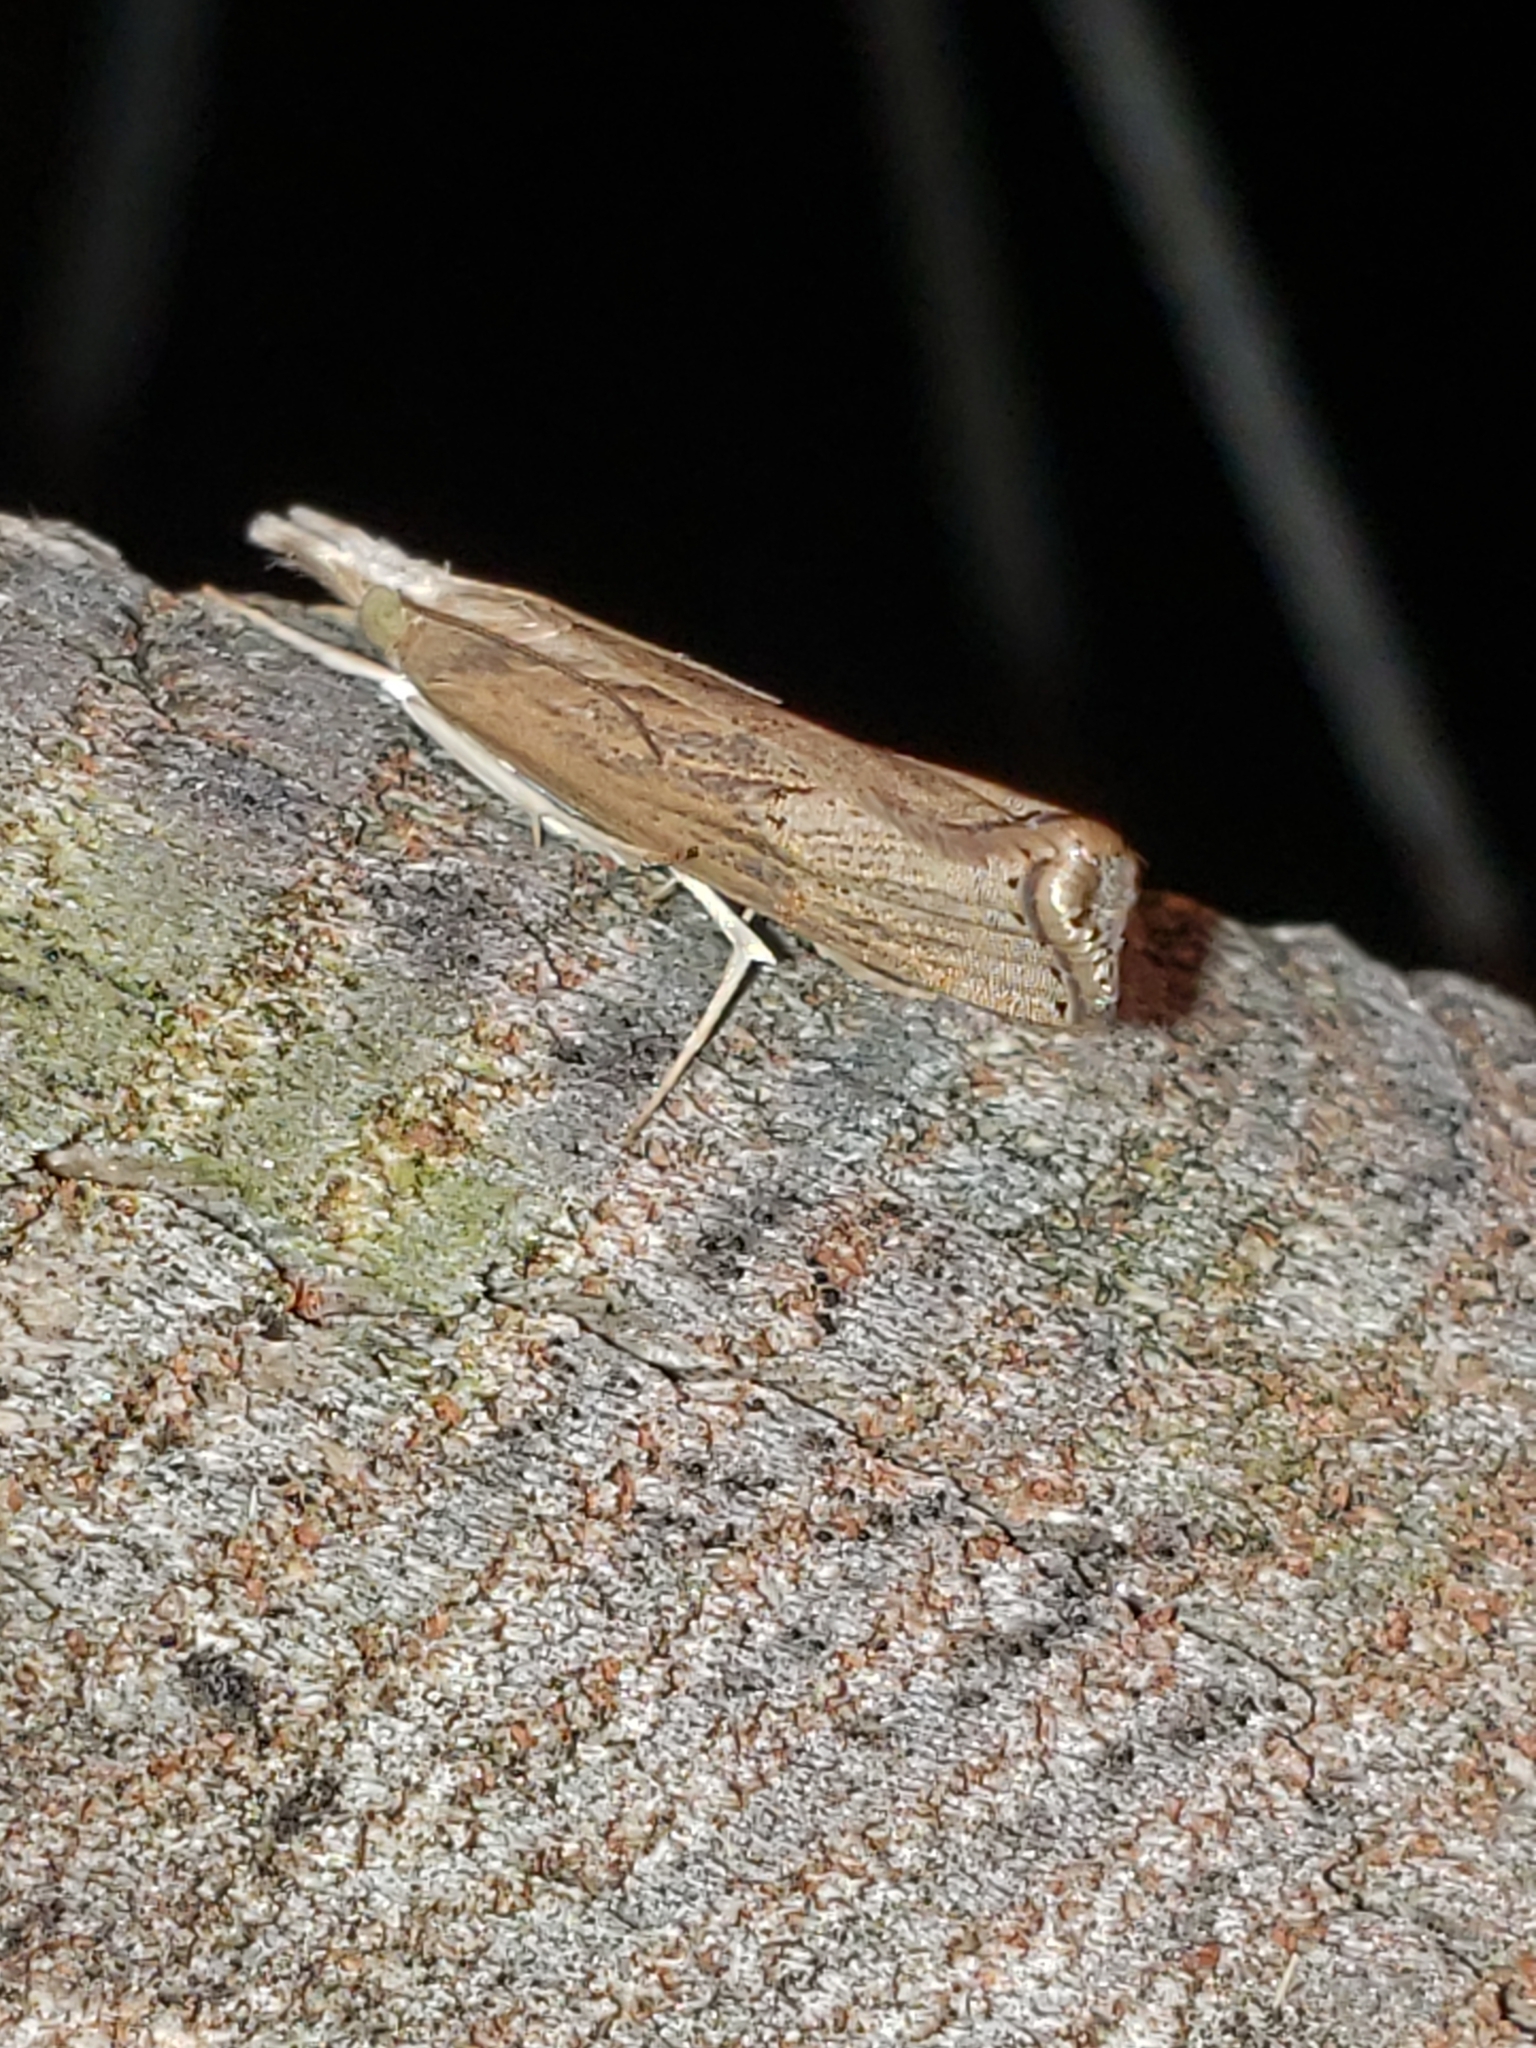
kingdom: Animalia
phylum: Arthropoda
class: Insecta
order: Lepidoptera
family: Crambidae
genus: Parapediasia
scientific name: Parapediasia teterellus
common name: Bluegrass webworm moth
